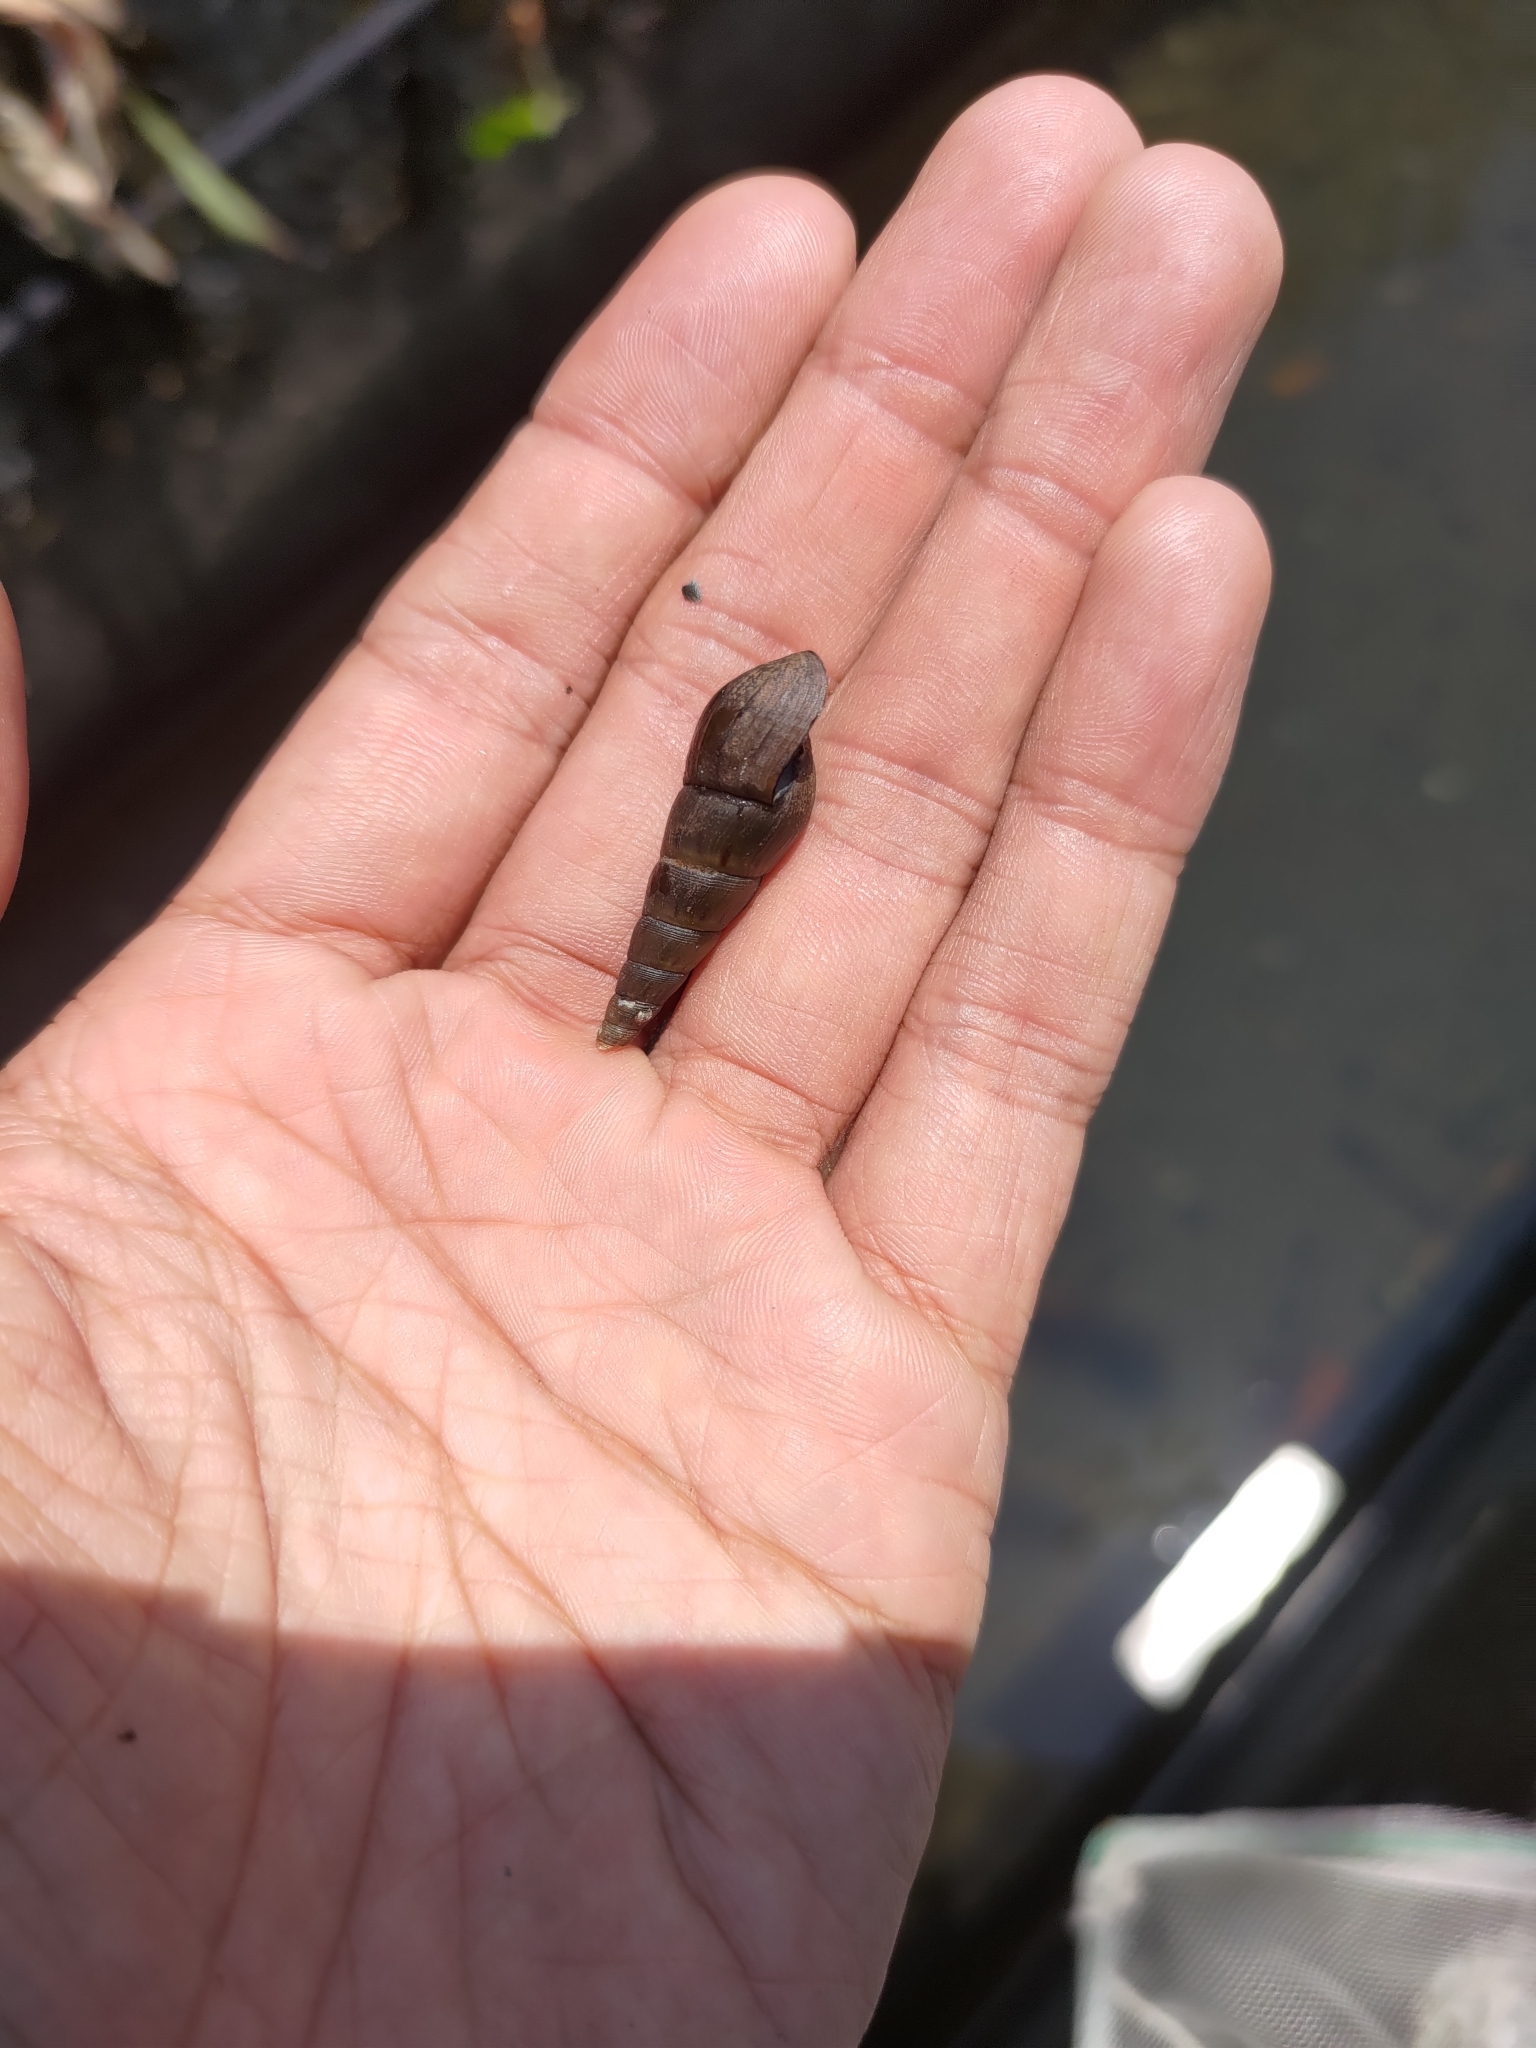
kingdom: Animalia
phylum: Mollusca
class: Gastropoda
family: Thiaridae
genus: Stenomelania
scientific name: Stenomelania plicaria
